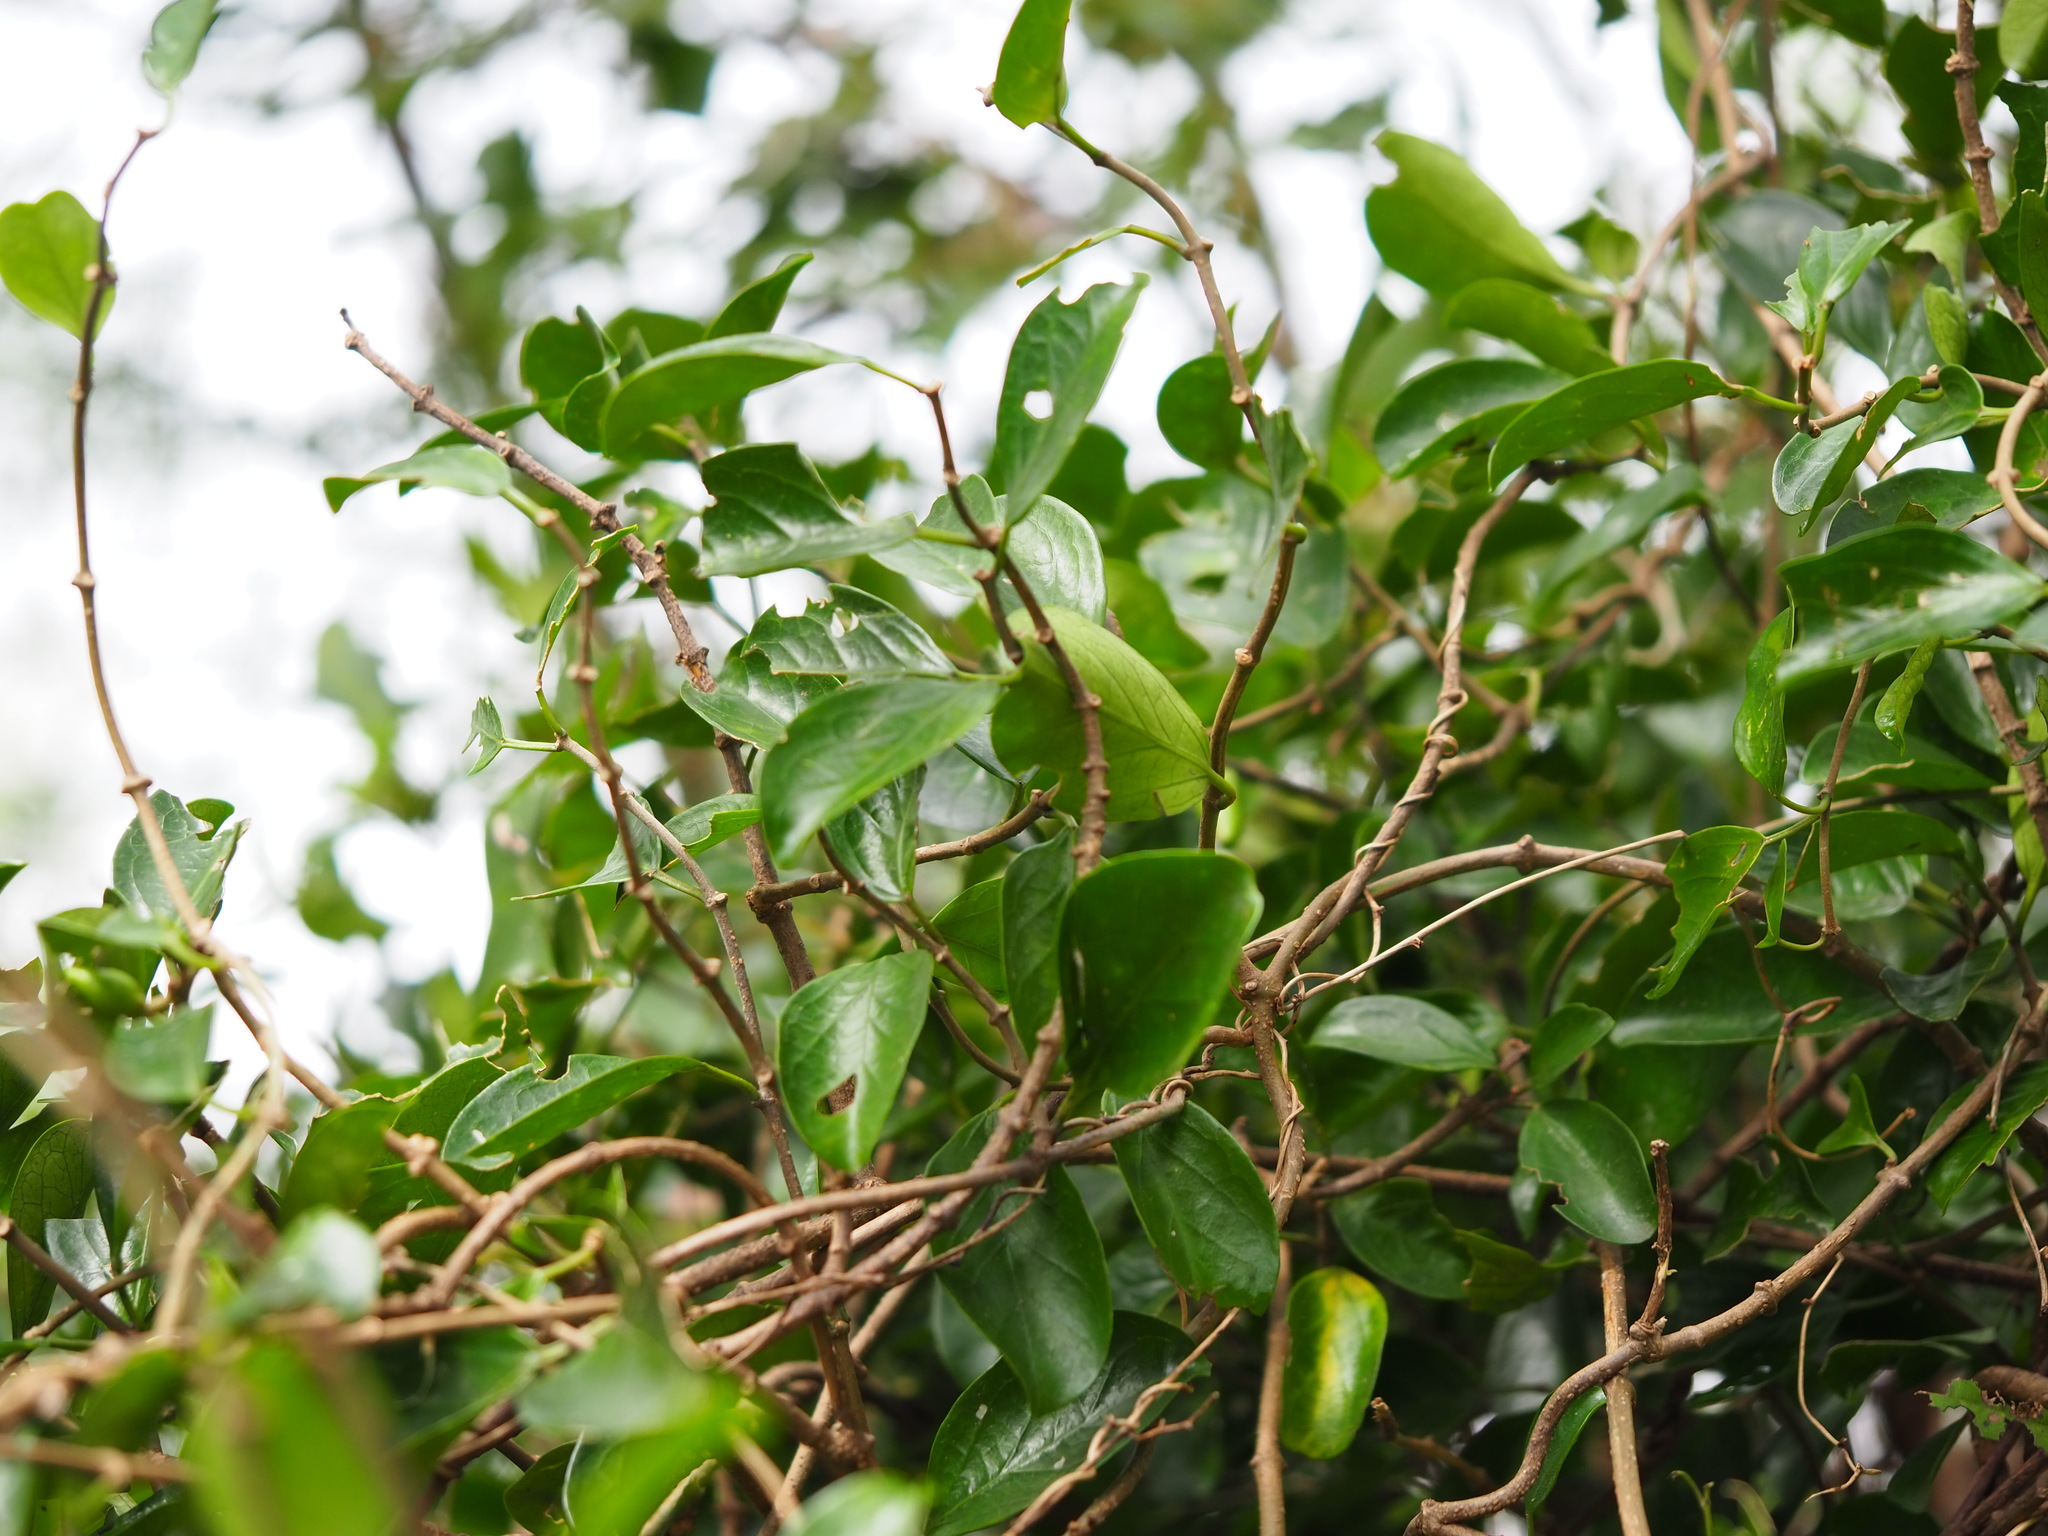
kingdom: Plantae
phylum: Tracheophyta
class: Magnoliopsida
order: Gentianales
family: Apocynaceae
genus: Gymnema
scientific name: Gymnema sylvestre
